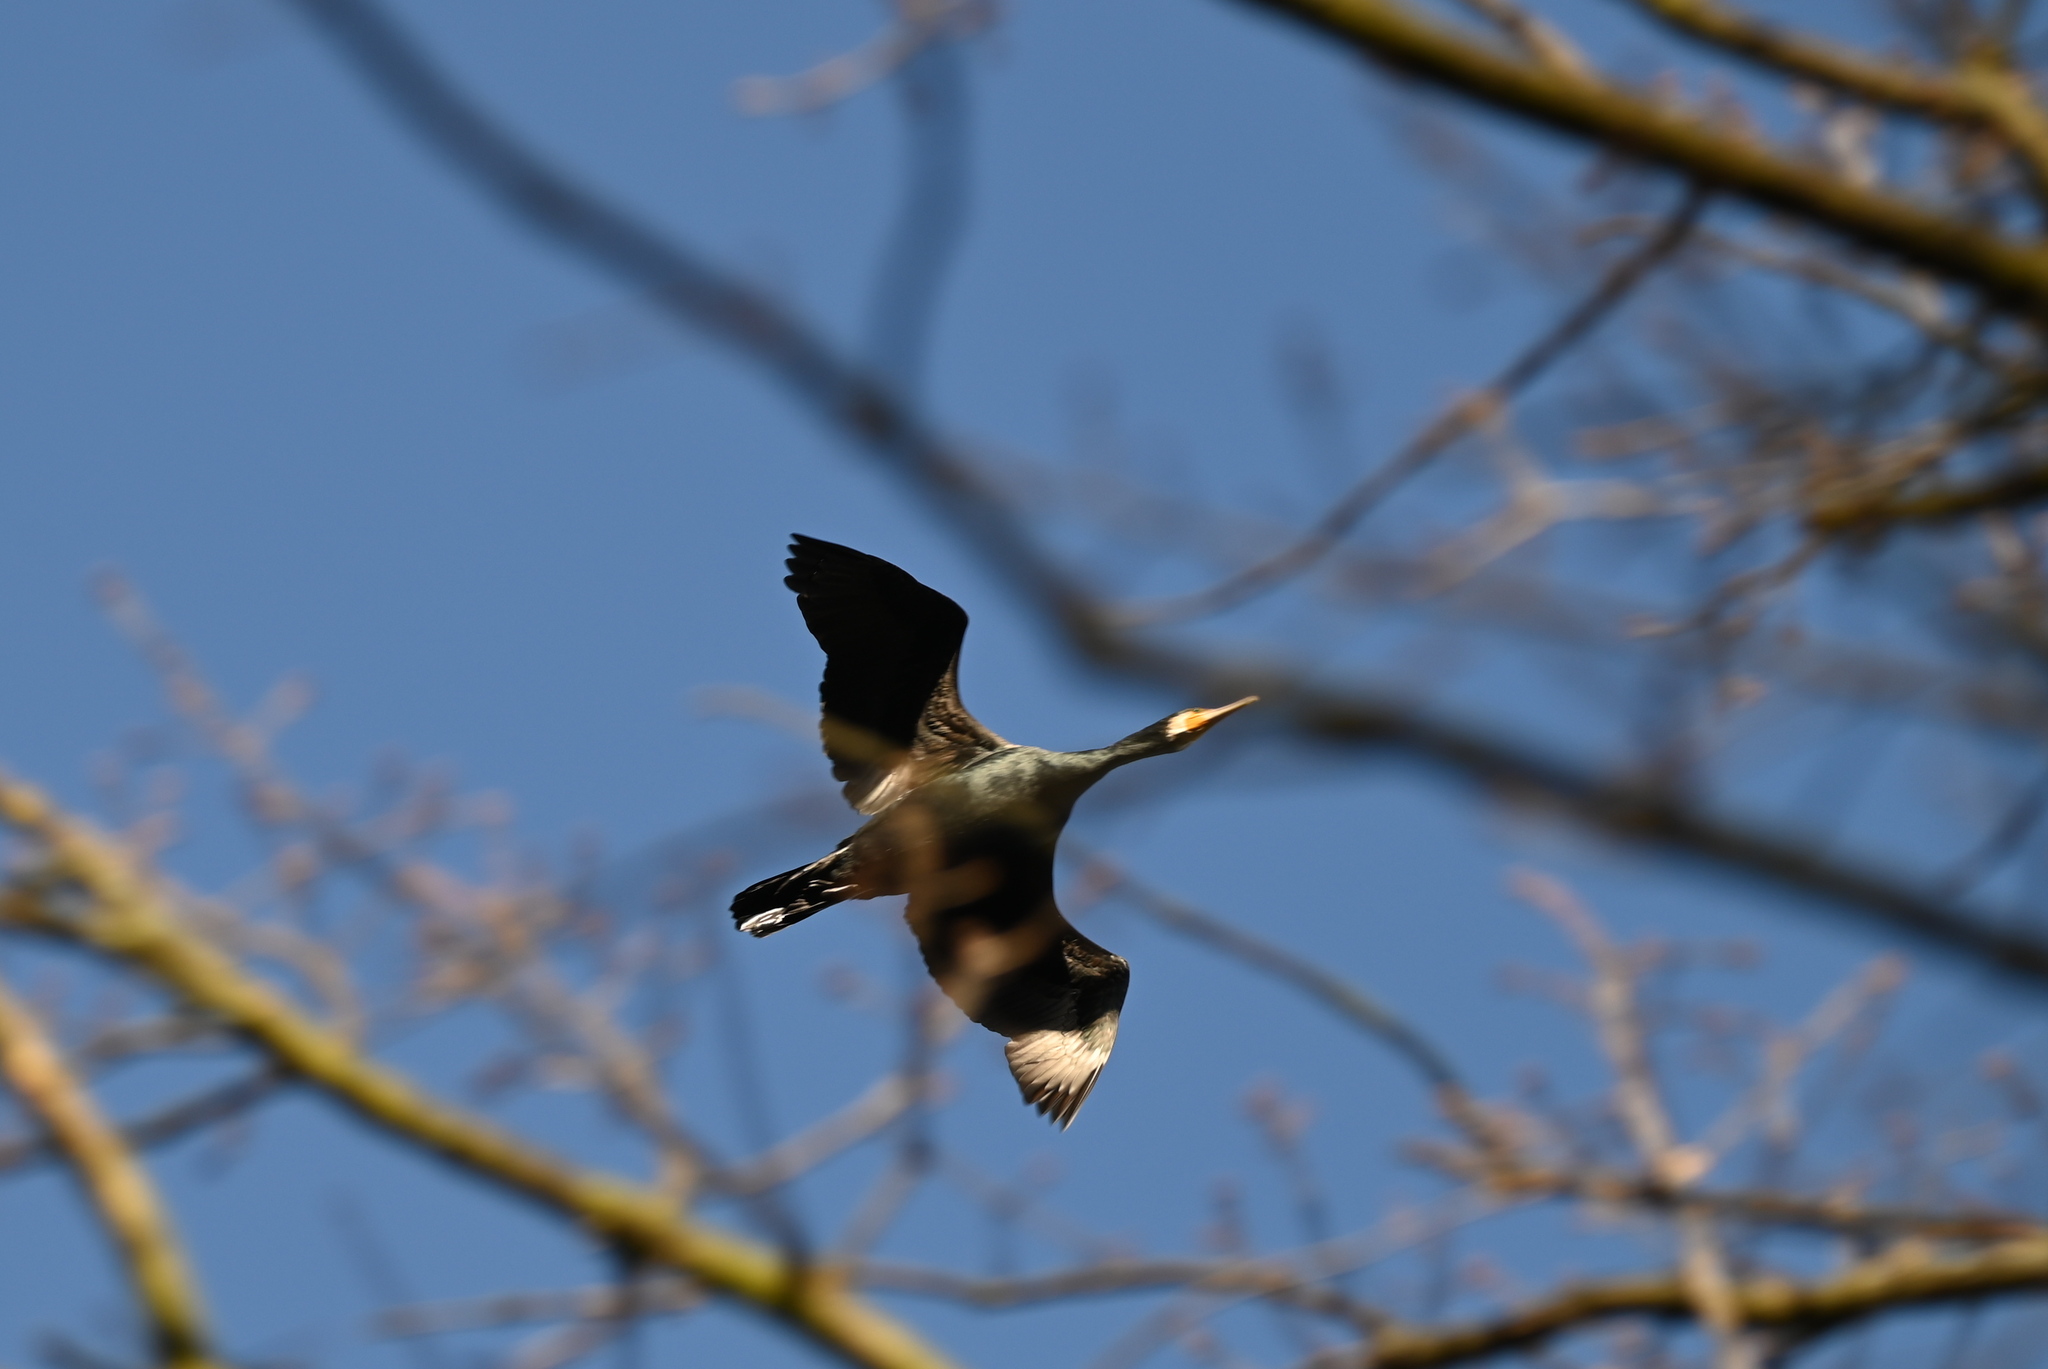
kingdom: Animalia
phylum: Chordata
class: Aves
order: Suliformes
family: Phalacrocoracidae
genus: Phalacrocorax
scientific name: Phalacrocorax carbo
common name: Great cormorant
